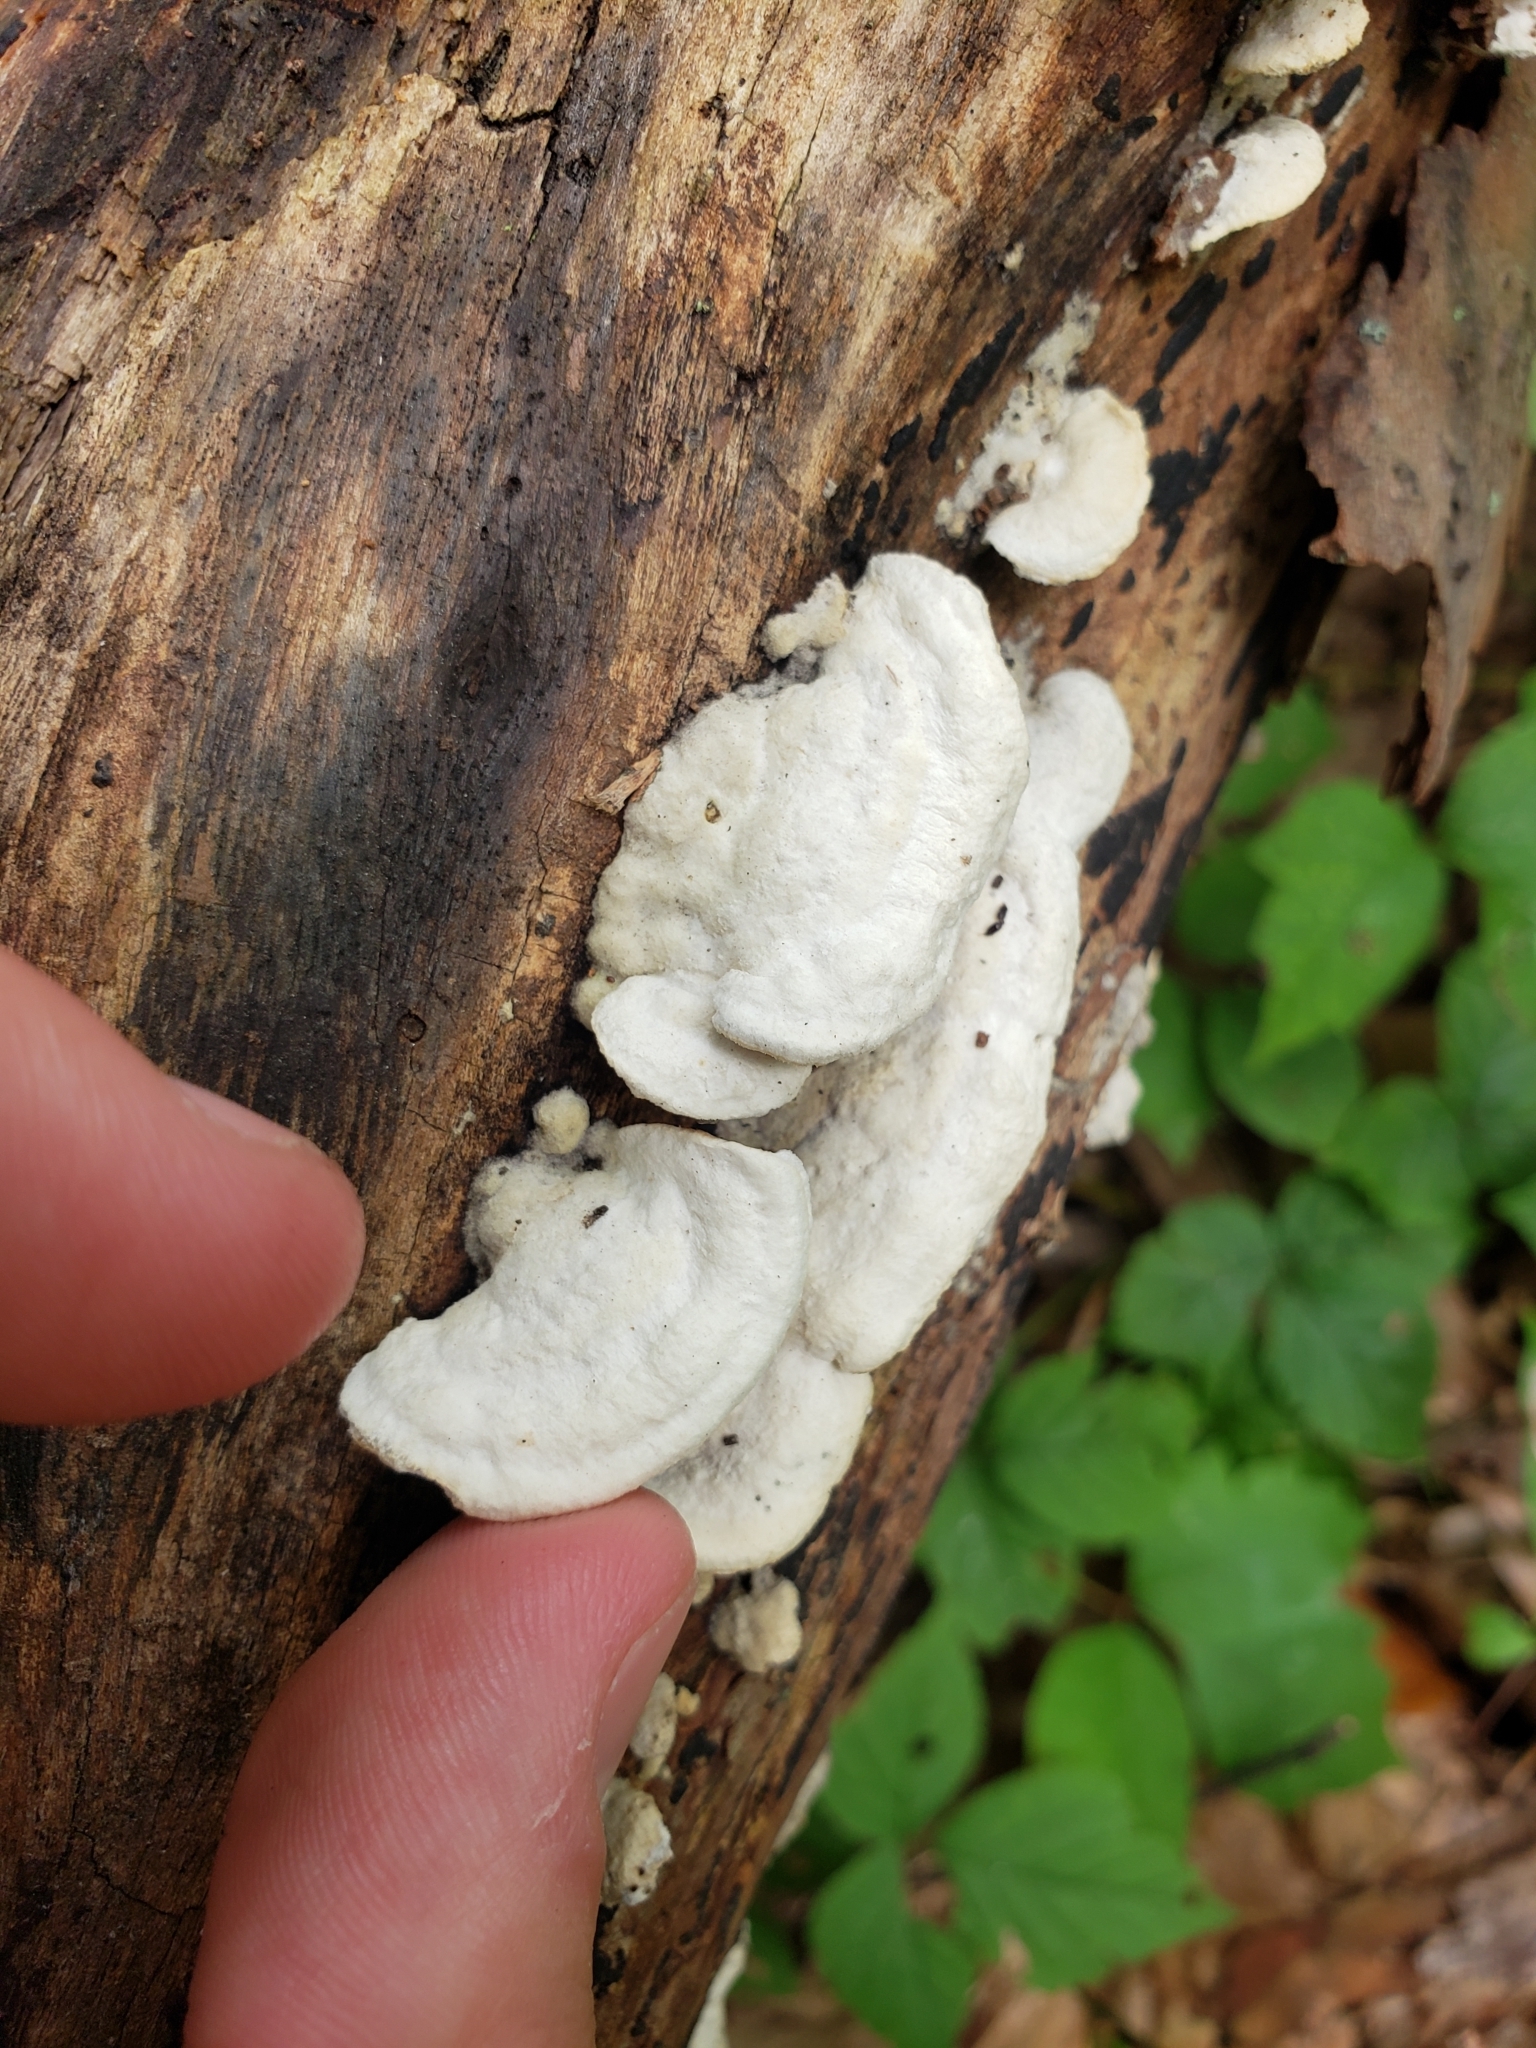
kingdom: Fungi
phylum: Basidiomycota
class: Agaricomycetes
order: Polyporales
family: Irpicaceae
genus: Vitreoporus
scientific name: Vitreoporus dichrous
